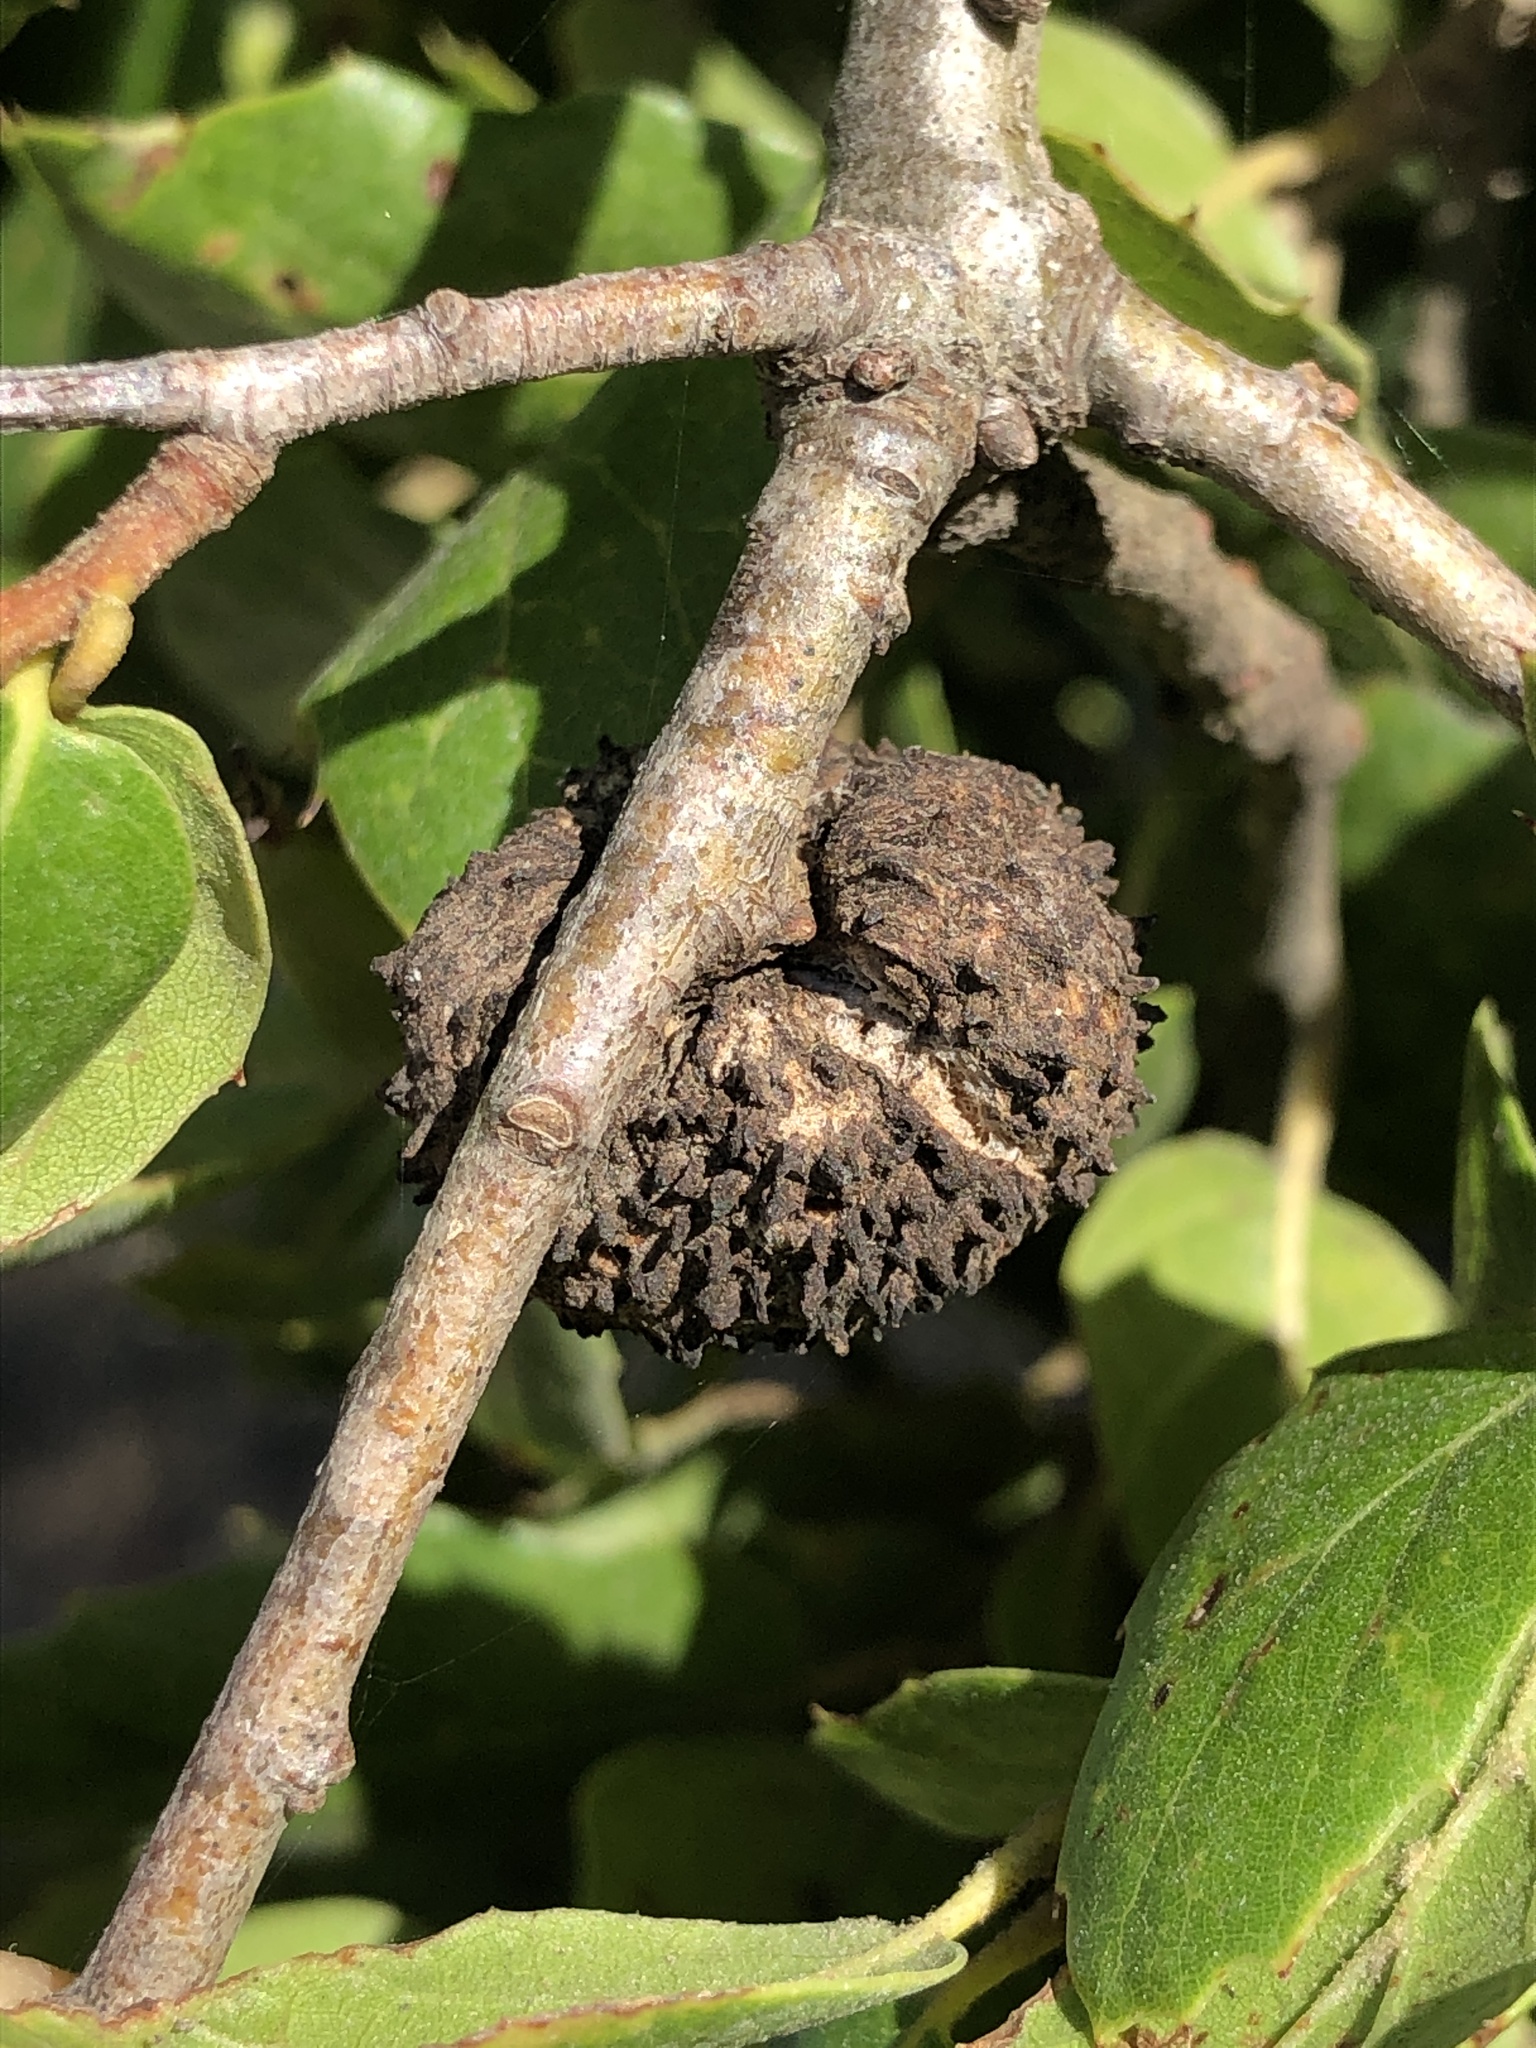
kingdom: Animalia
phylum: Arthropoda
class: Insecta
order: Hymenoptera
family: Cynipidae
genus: Amphibolips
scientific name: Amphibolips quercuspomiformis
